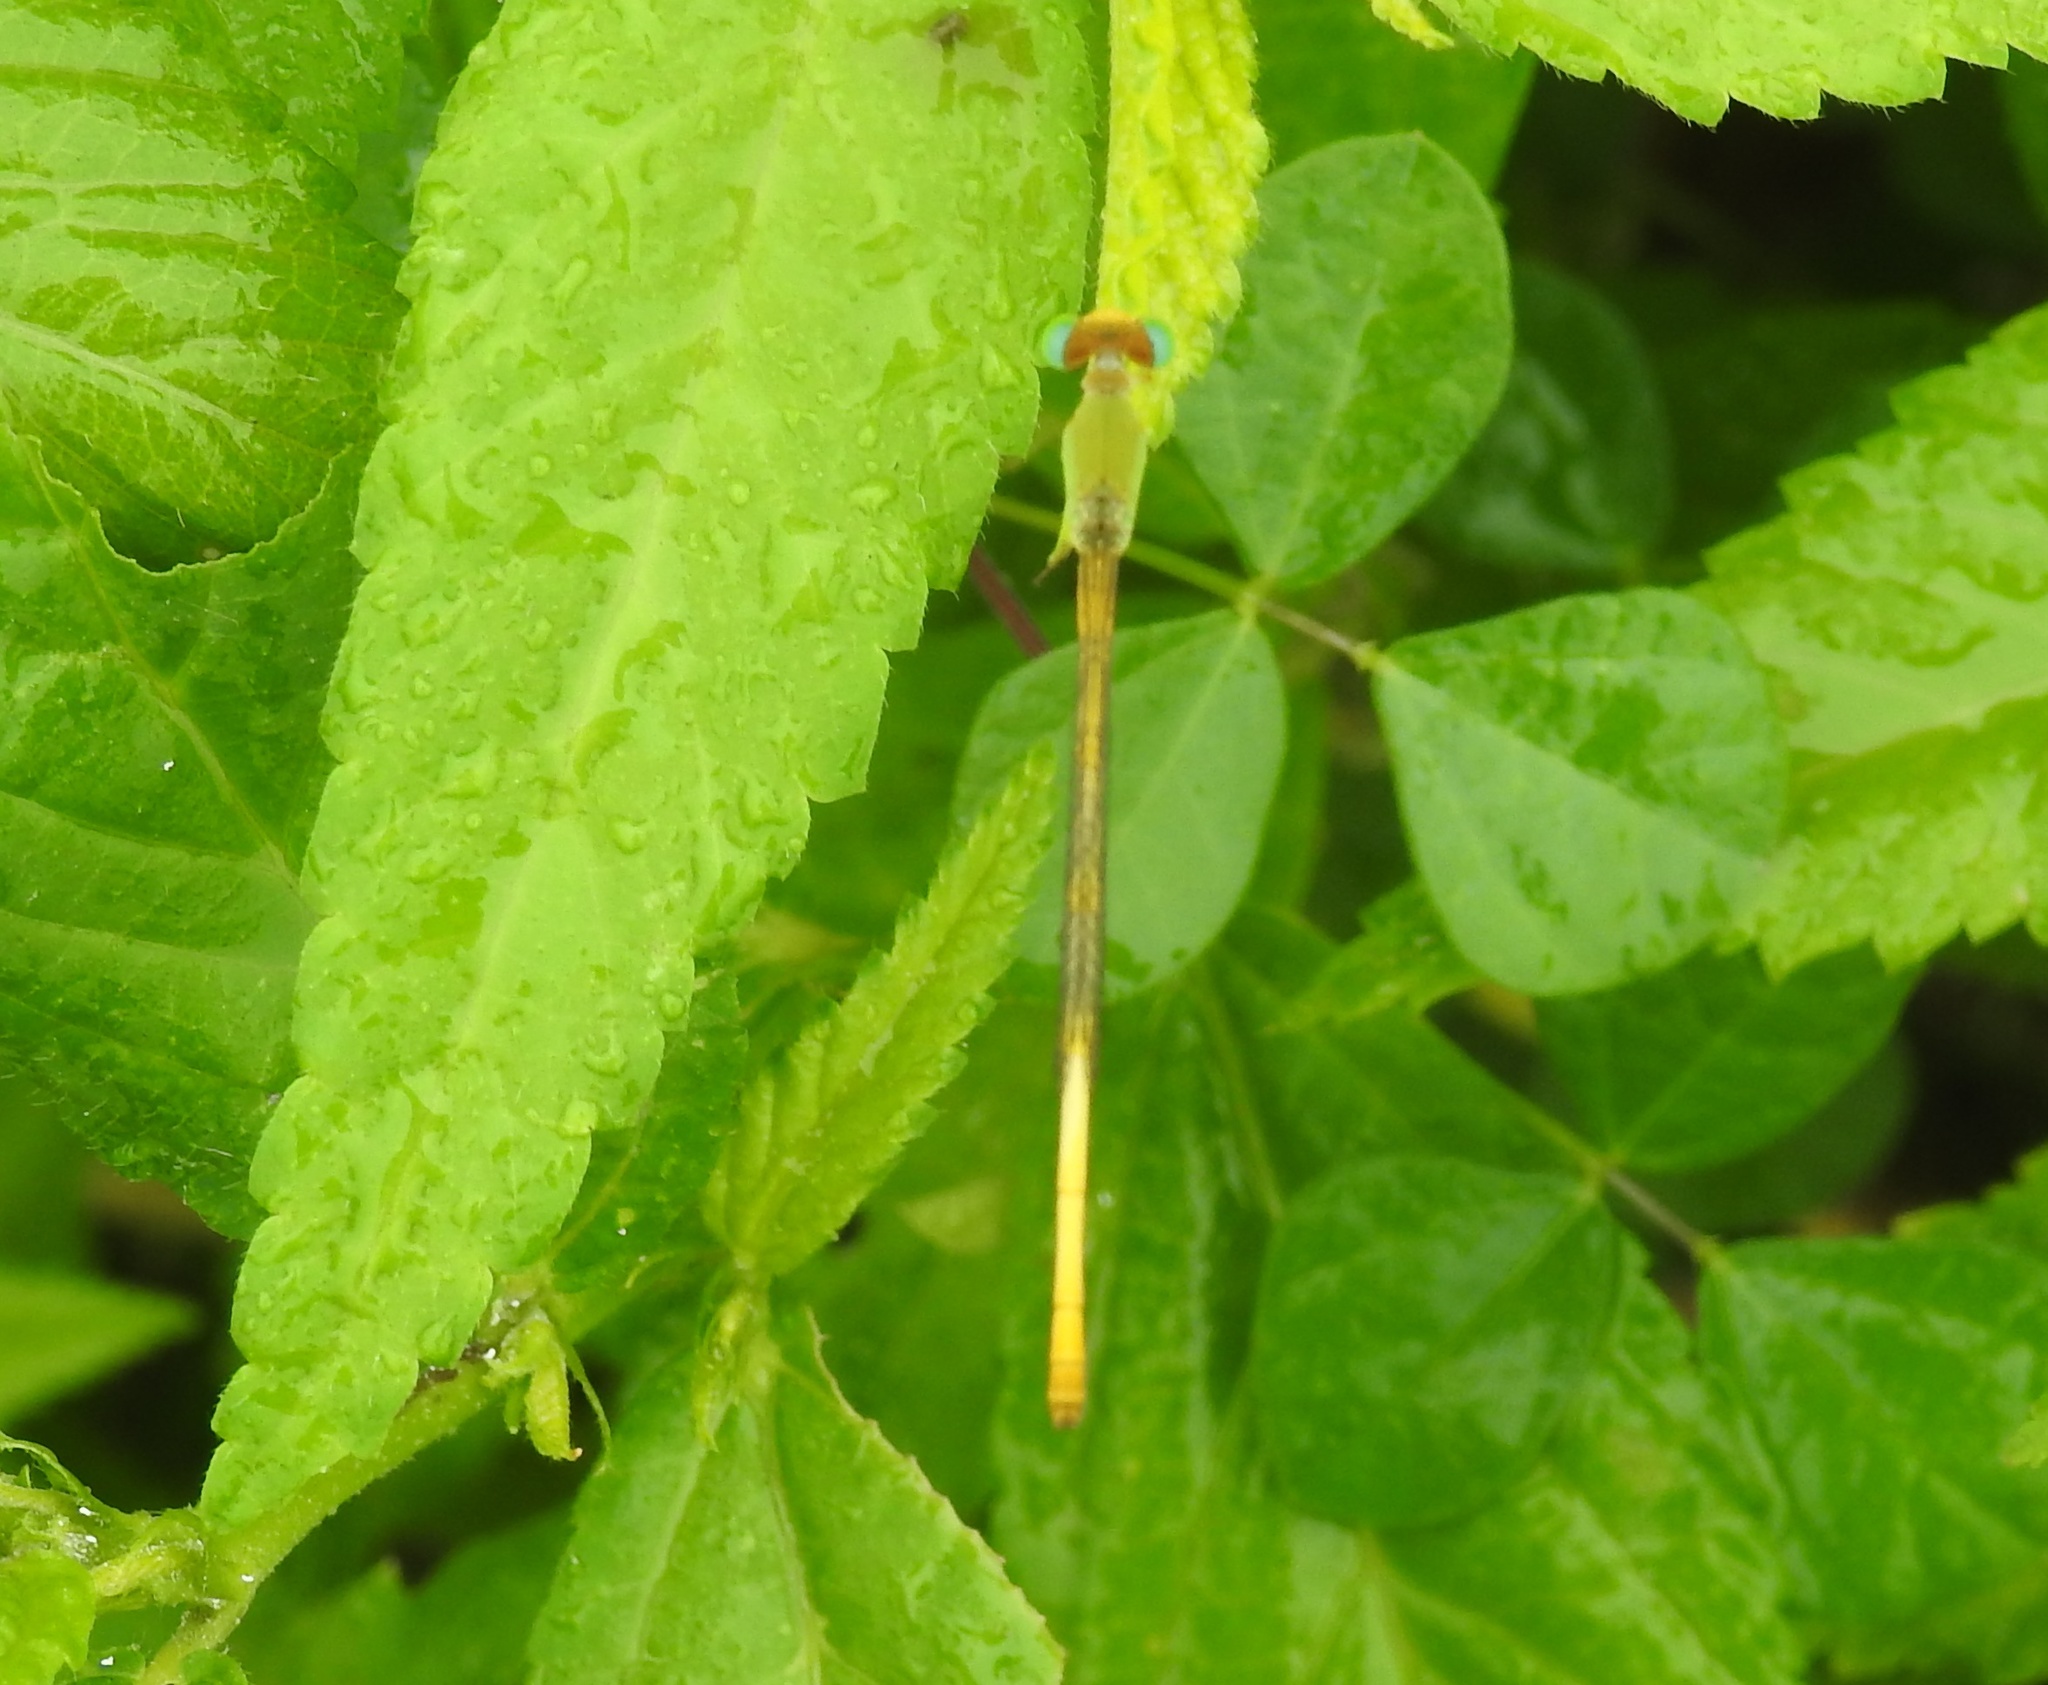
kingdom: Animalia
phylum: Arthropoda
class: Insecta
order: Odonata
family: Coenagrionidae
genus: Ceriagrion
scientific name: Ceriagrion coromandelianum
